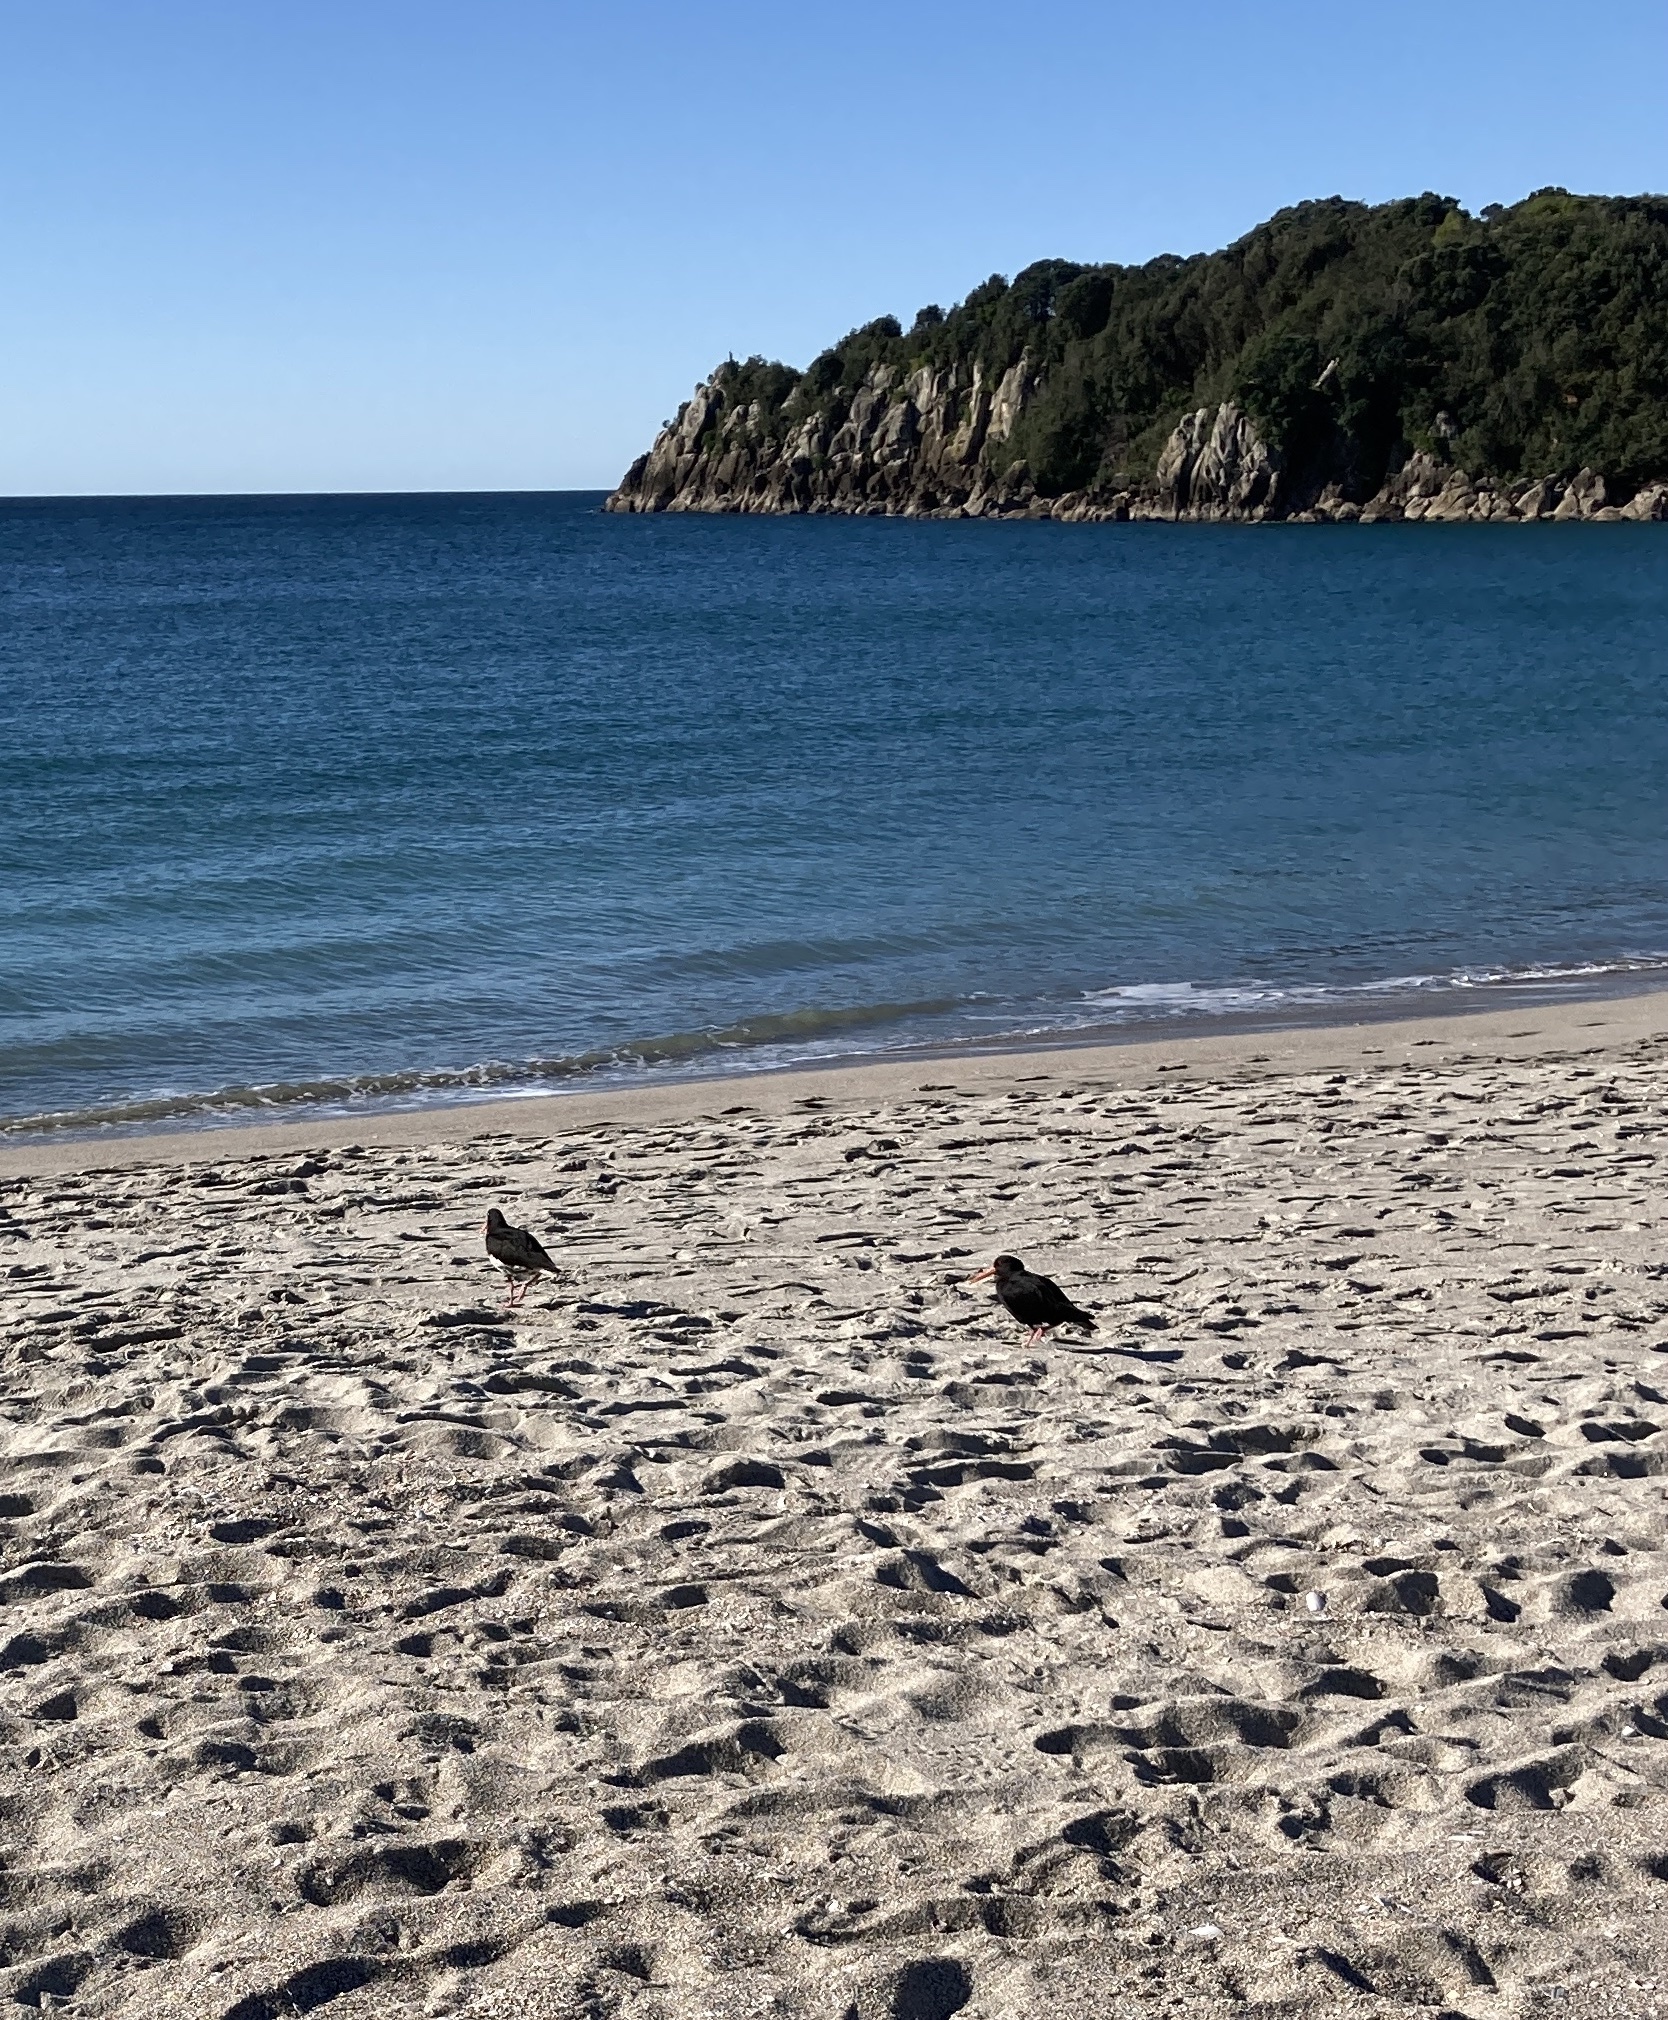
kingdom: Animalia
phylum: Chordata
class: Aves
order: Charadriiformes
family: Haematopodidae
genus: Haematopus
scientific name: Haematopus unicolor
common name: Variable oystercatcher
